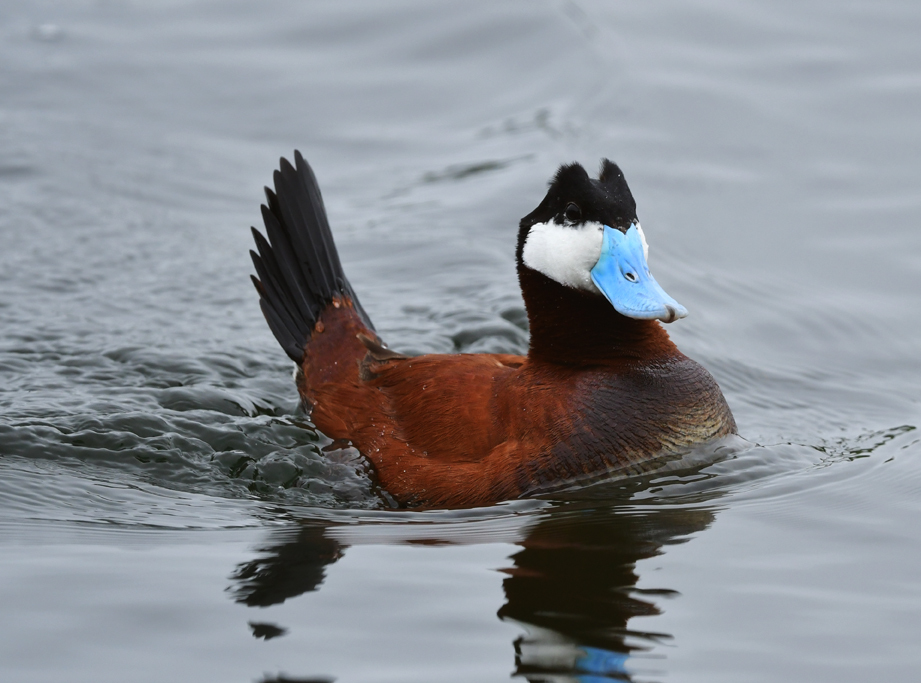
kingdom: Animalia
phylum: Chordata
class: Aves
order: Anseriformes
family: Anatidae
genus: Oxyura
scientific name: Oxyura jamaicensis
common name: Ruddy duck
